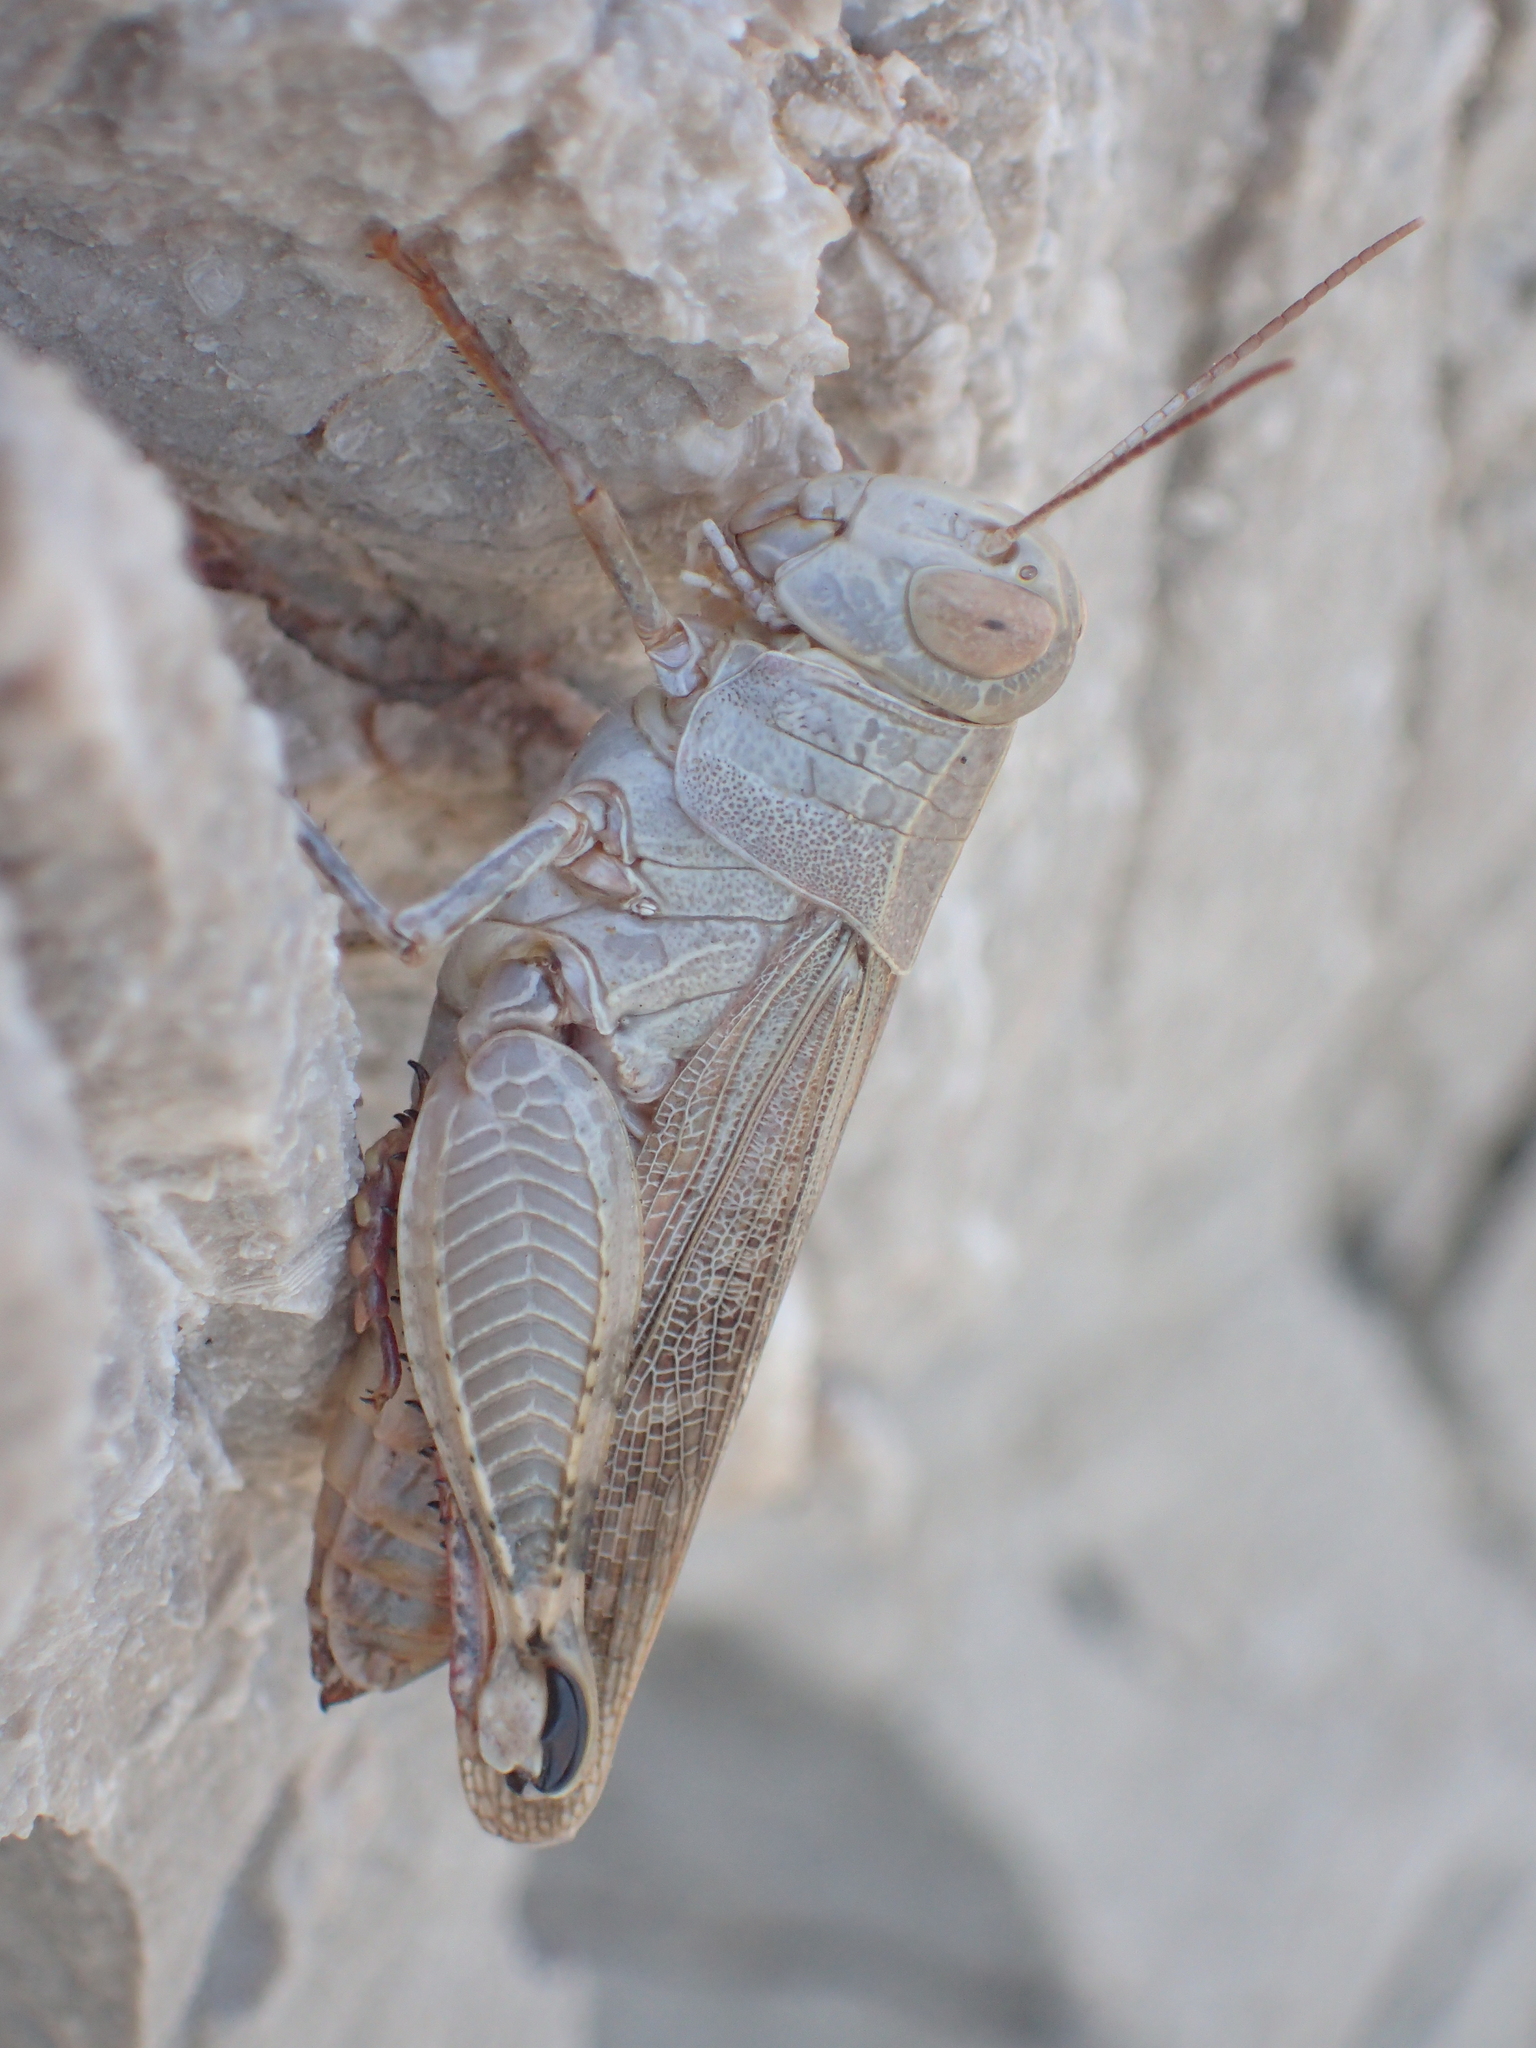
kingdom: Animalia
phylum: Arthropoda
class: Insecta
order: Orthoptera
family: Acrididae
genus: Calliptamus
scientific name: Calliptamus italicus
